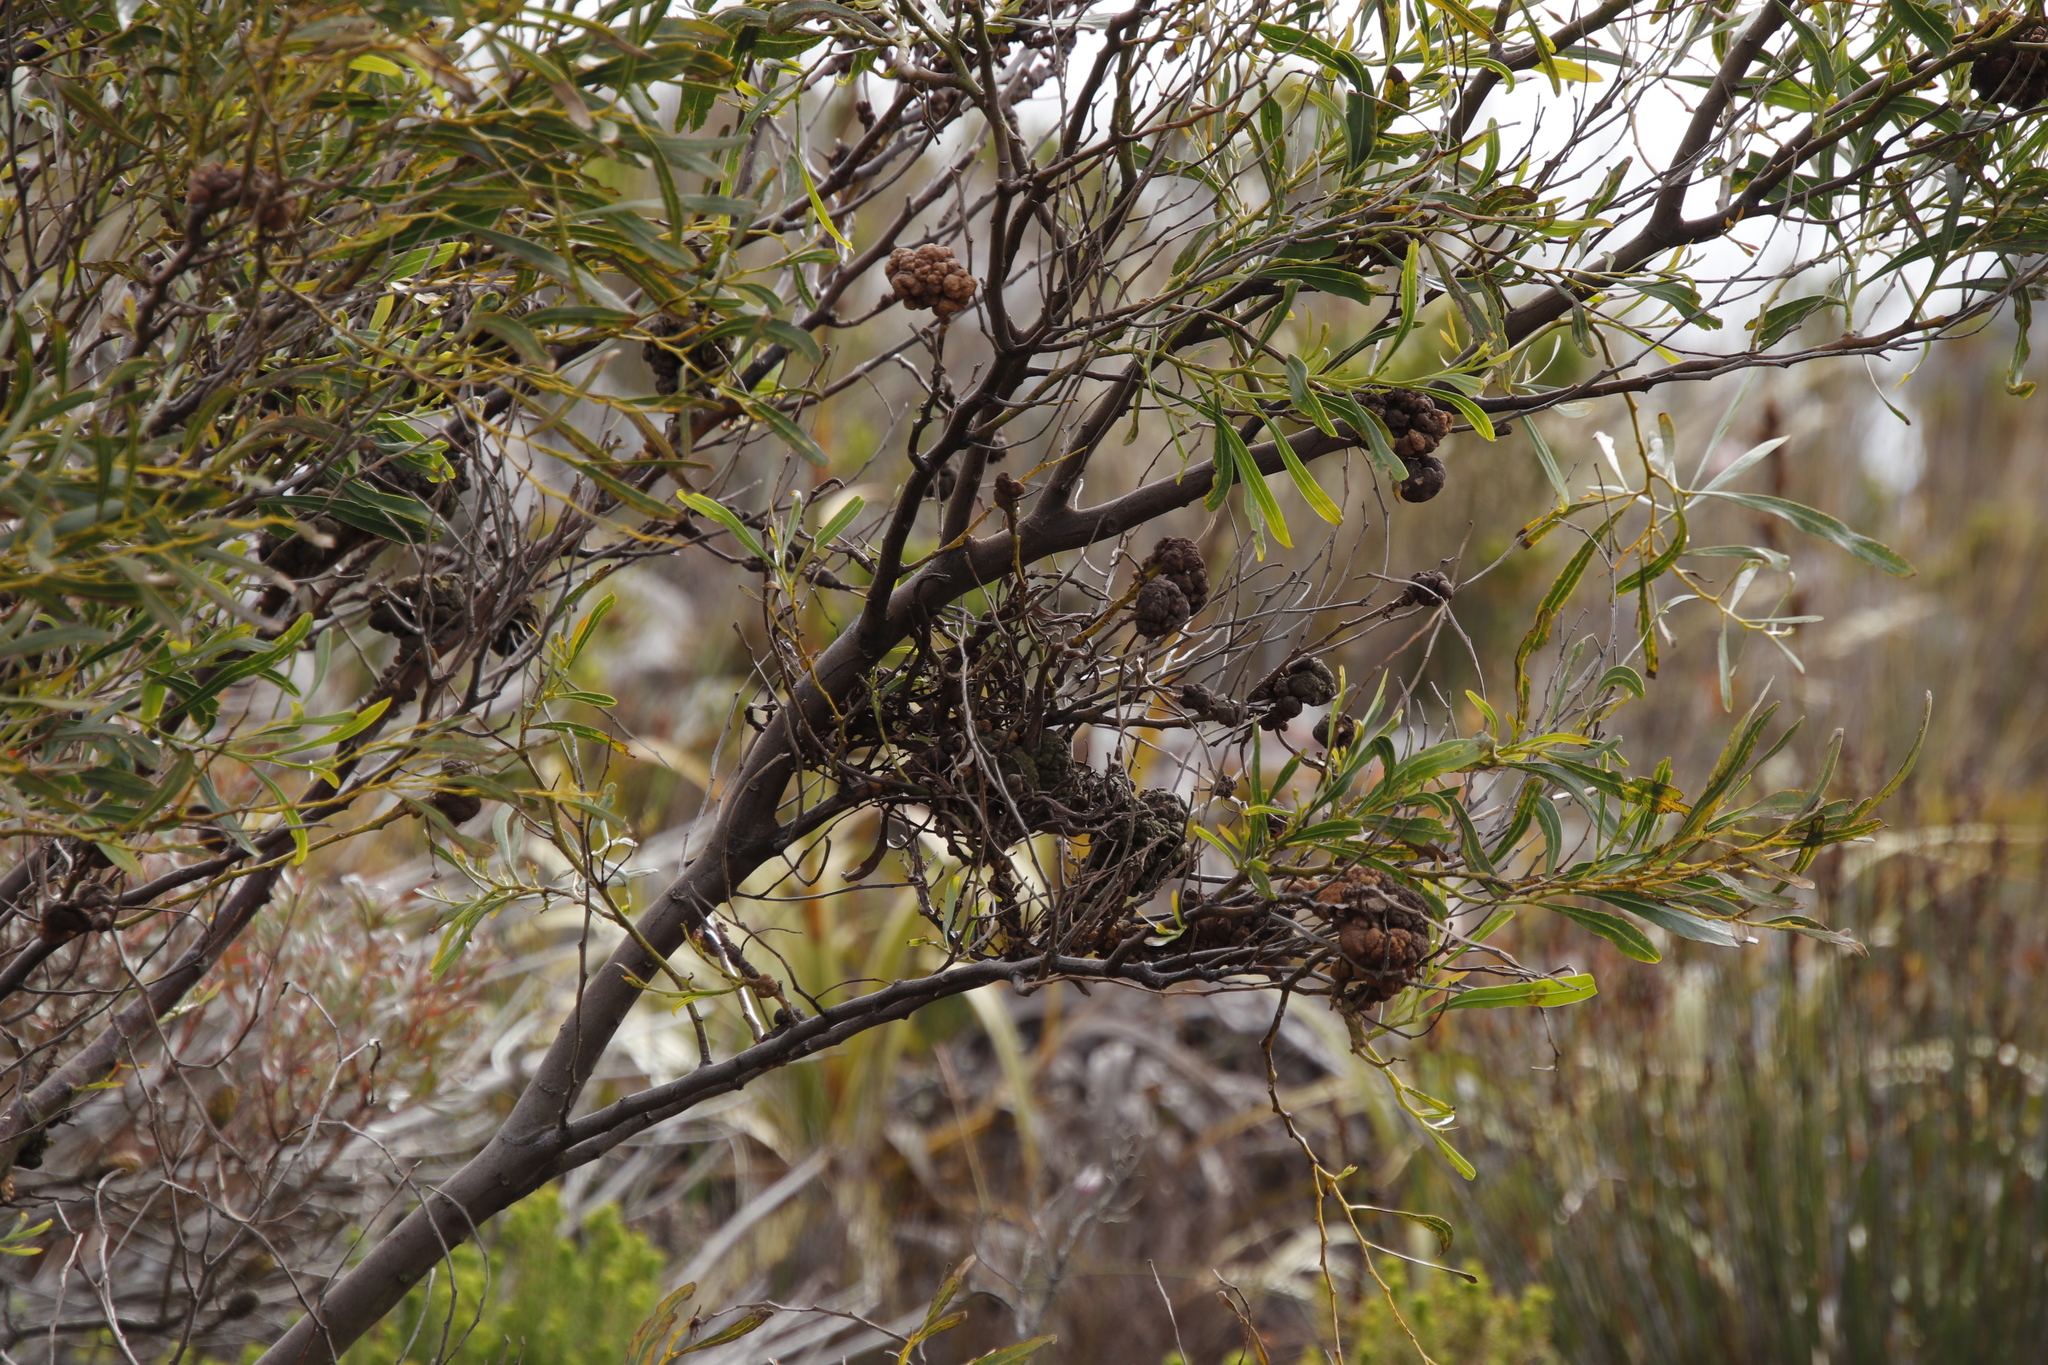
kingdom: Plantae
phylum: Tracheophyta
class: Magnoliopsida
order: Fabales
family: Fabaceae
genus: Acacia
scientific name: Acacia saligna
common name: Orange wattle
